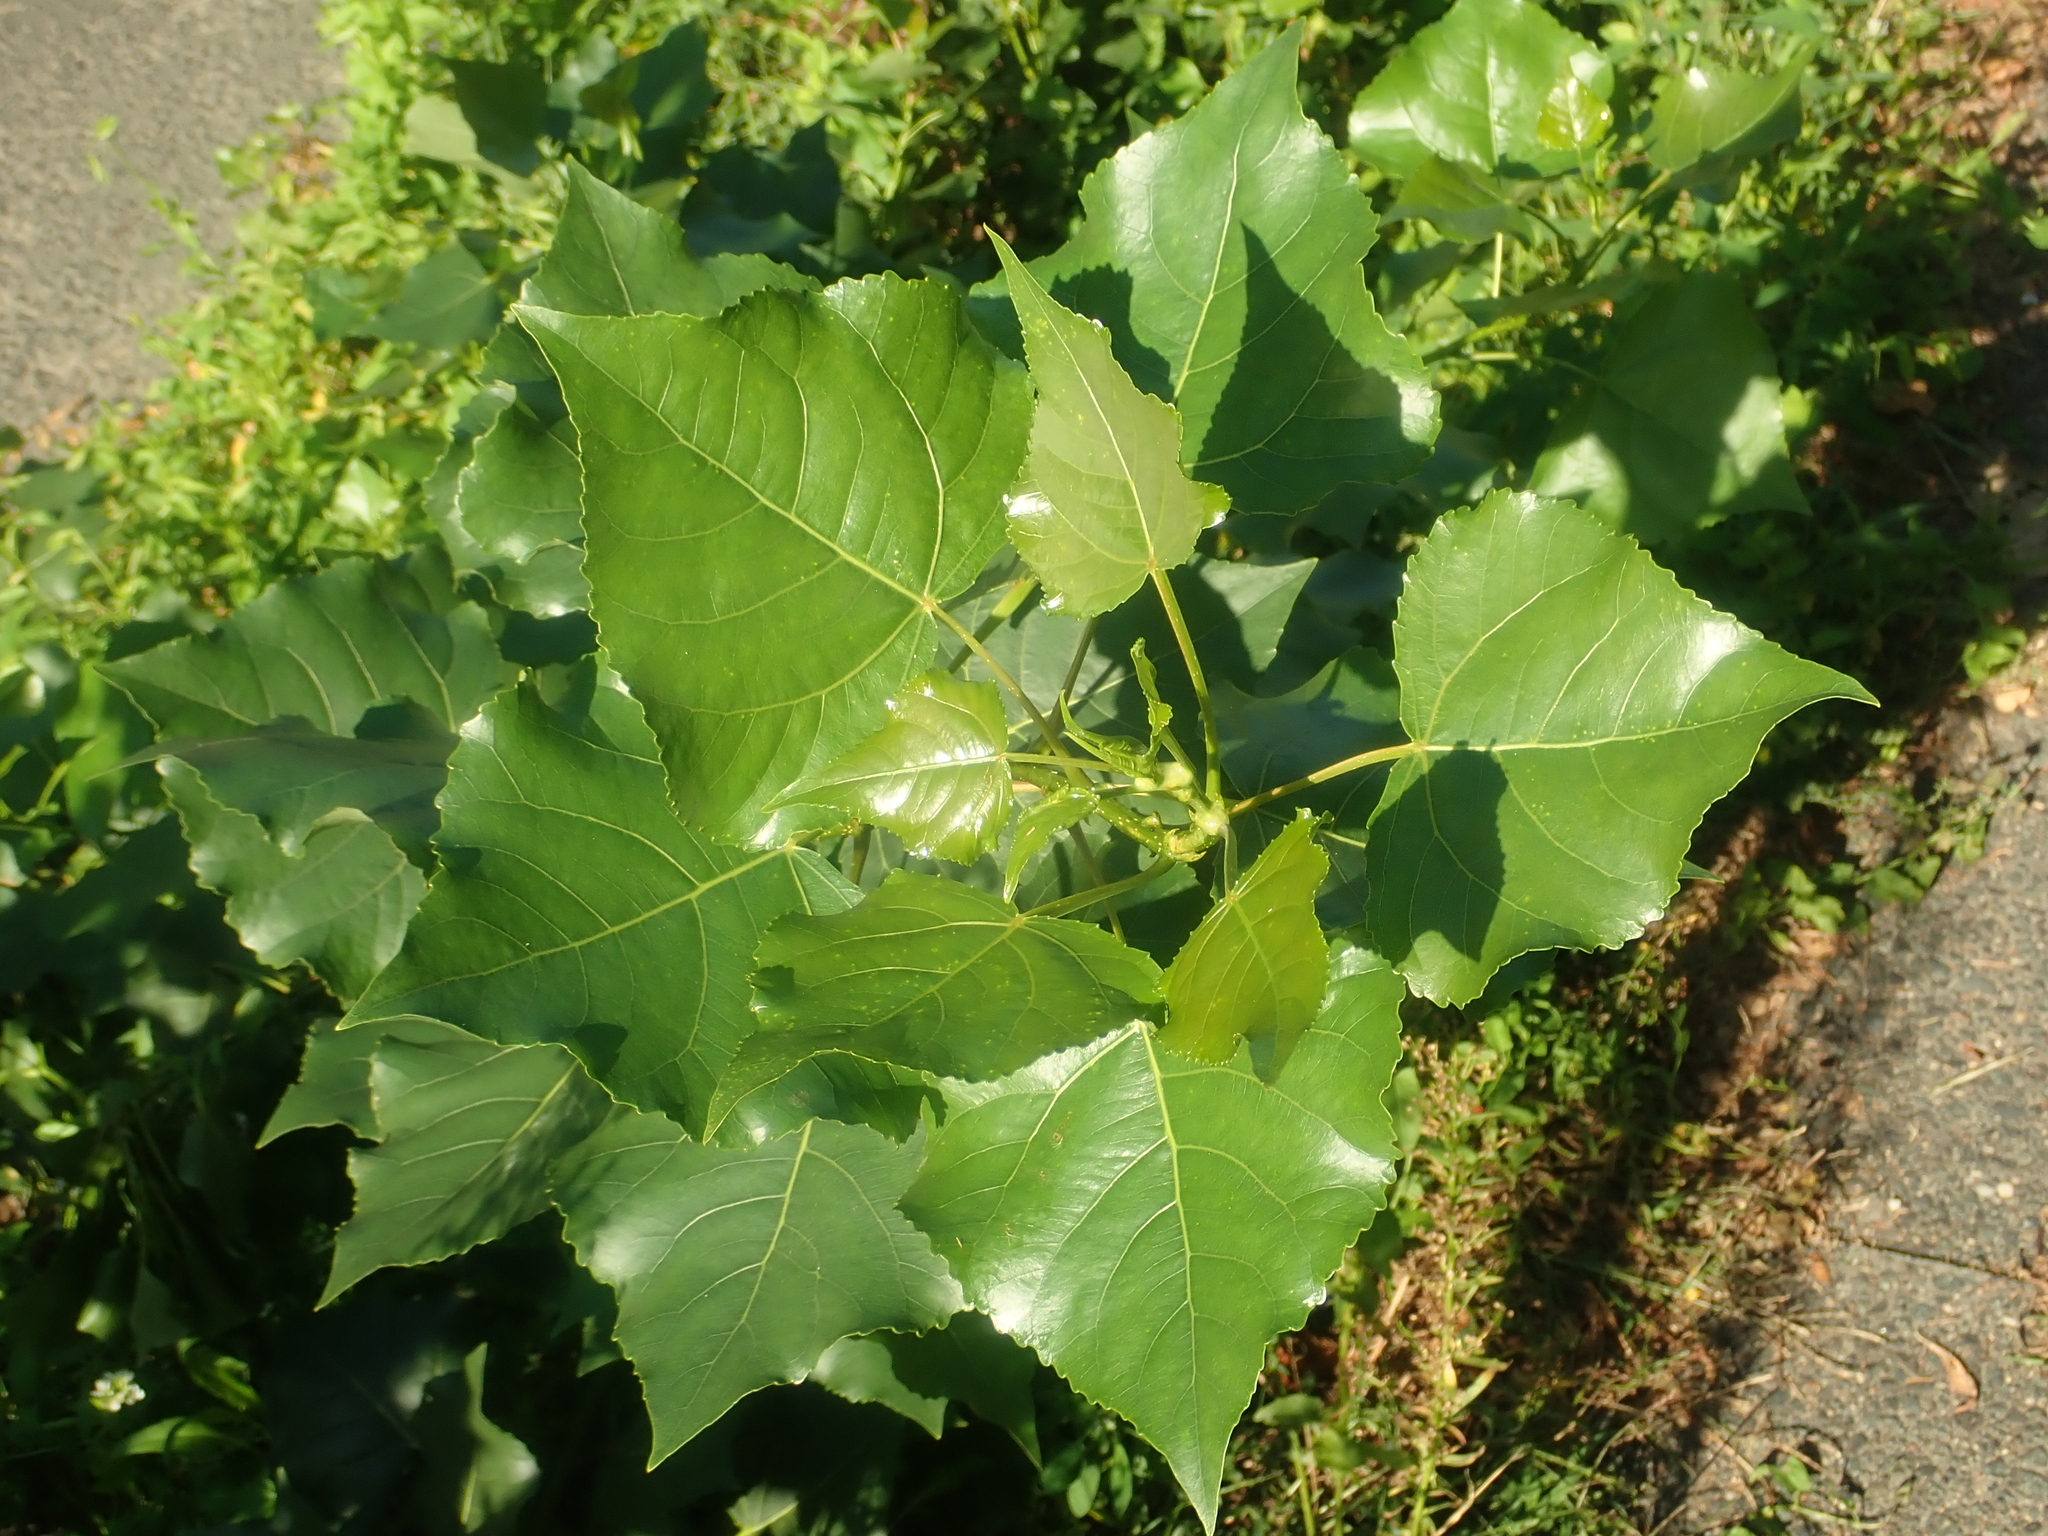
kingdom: Plantae
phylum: Tracheophyta
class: Magnoliopsida
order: Malpighiales
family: Salicaceae
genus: Populus
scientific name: Populus nigra
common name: Black poplar
